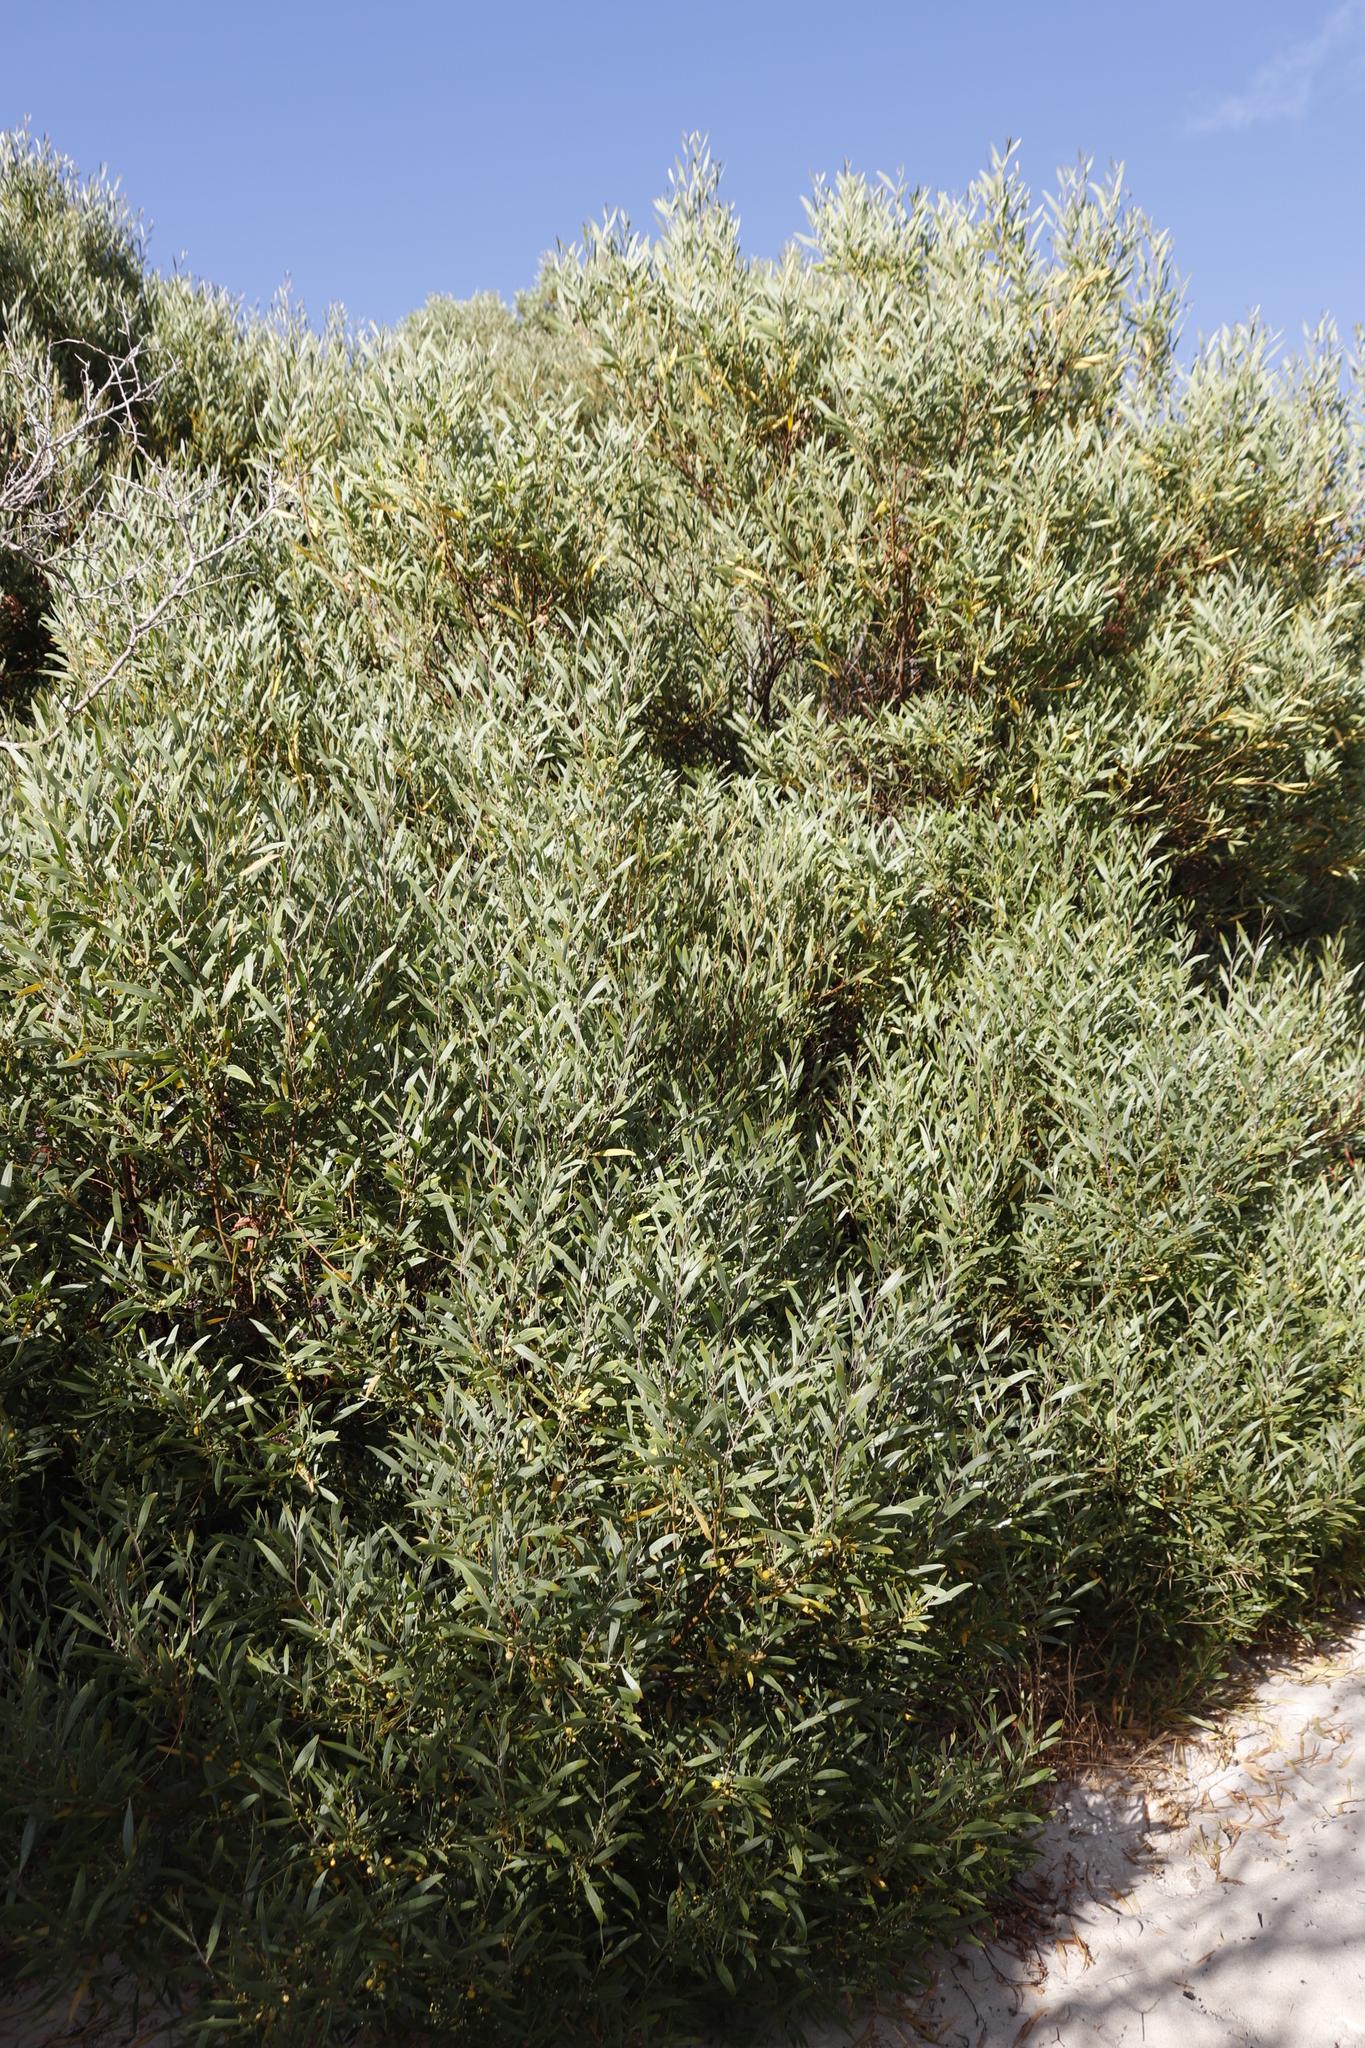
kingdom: Plantae
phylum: Tracheophyta
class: Magnoliopsida
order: Fabales
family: Fabaceae
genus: Acacia
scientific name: Acacia cyclops
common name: Coastal wattle
